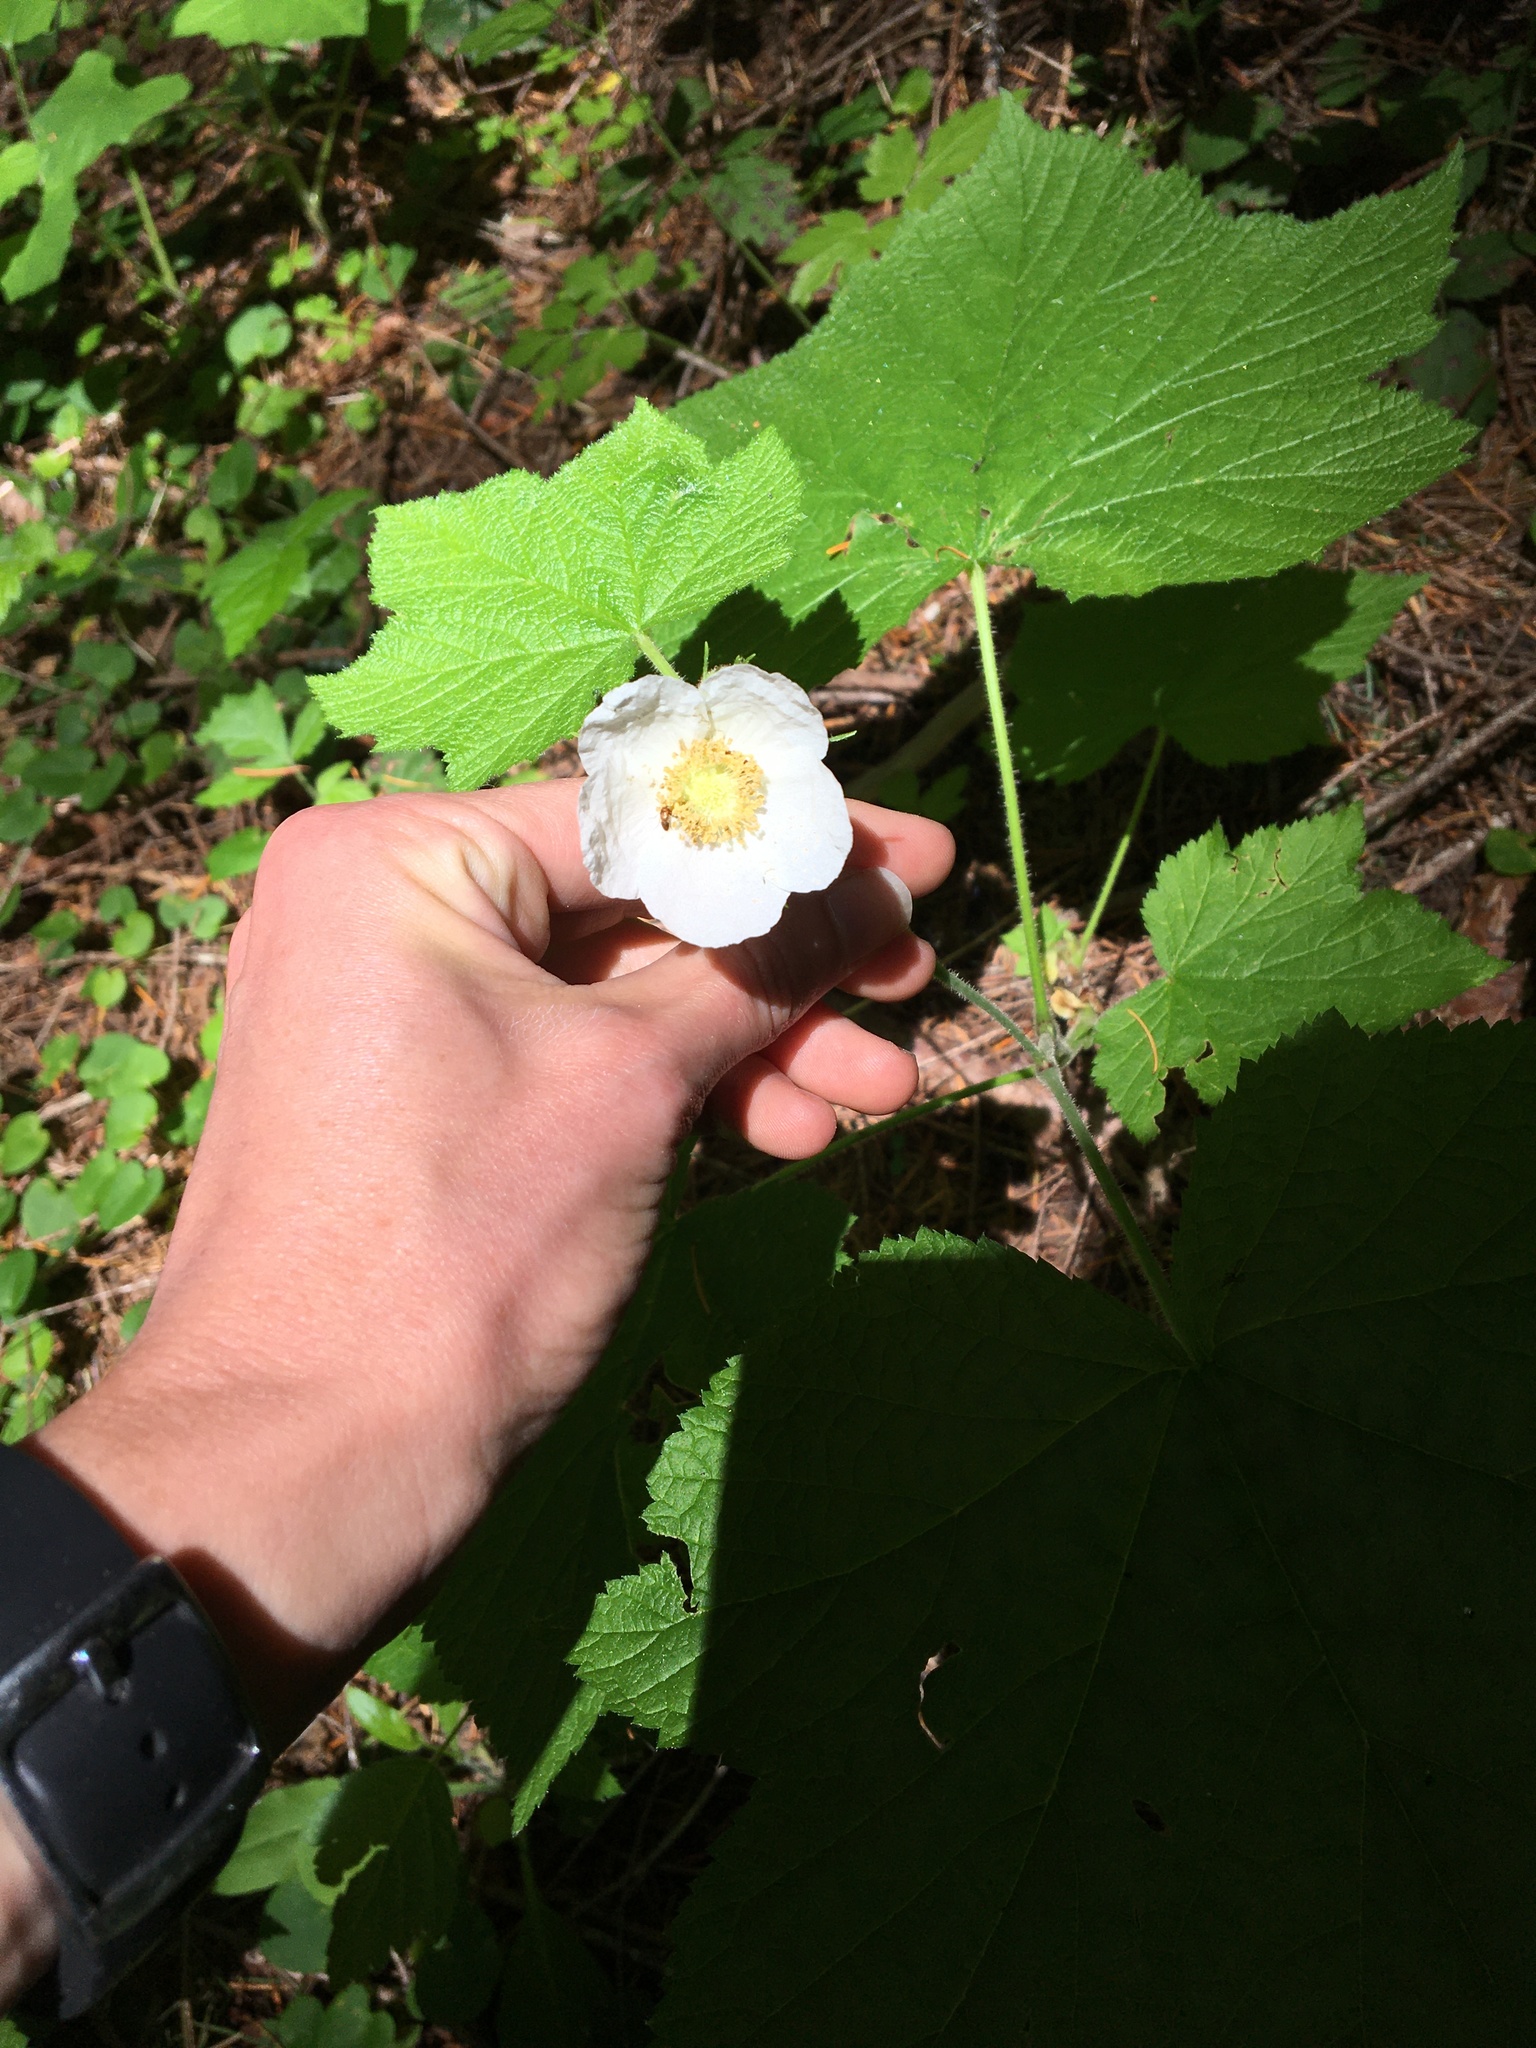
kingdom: Plantae
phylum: Tracheophyta
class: Magnoliopsida
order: Rosales
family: Rosaceae
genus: Rubus
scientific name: Rubus parviflorus
